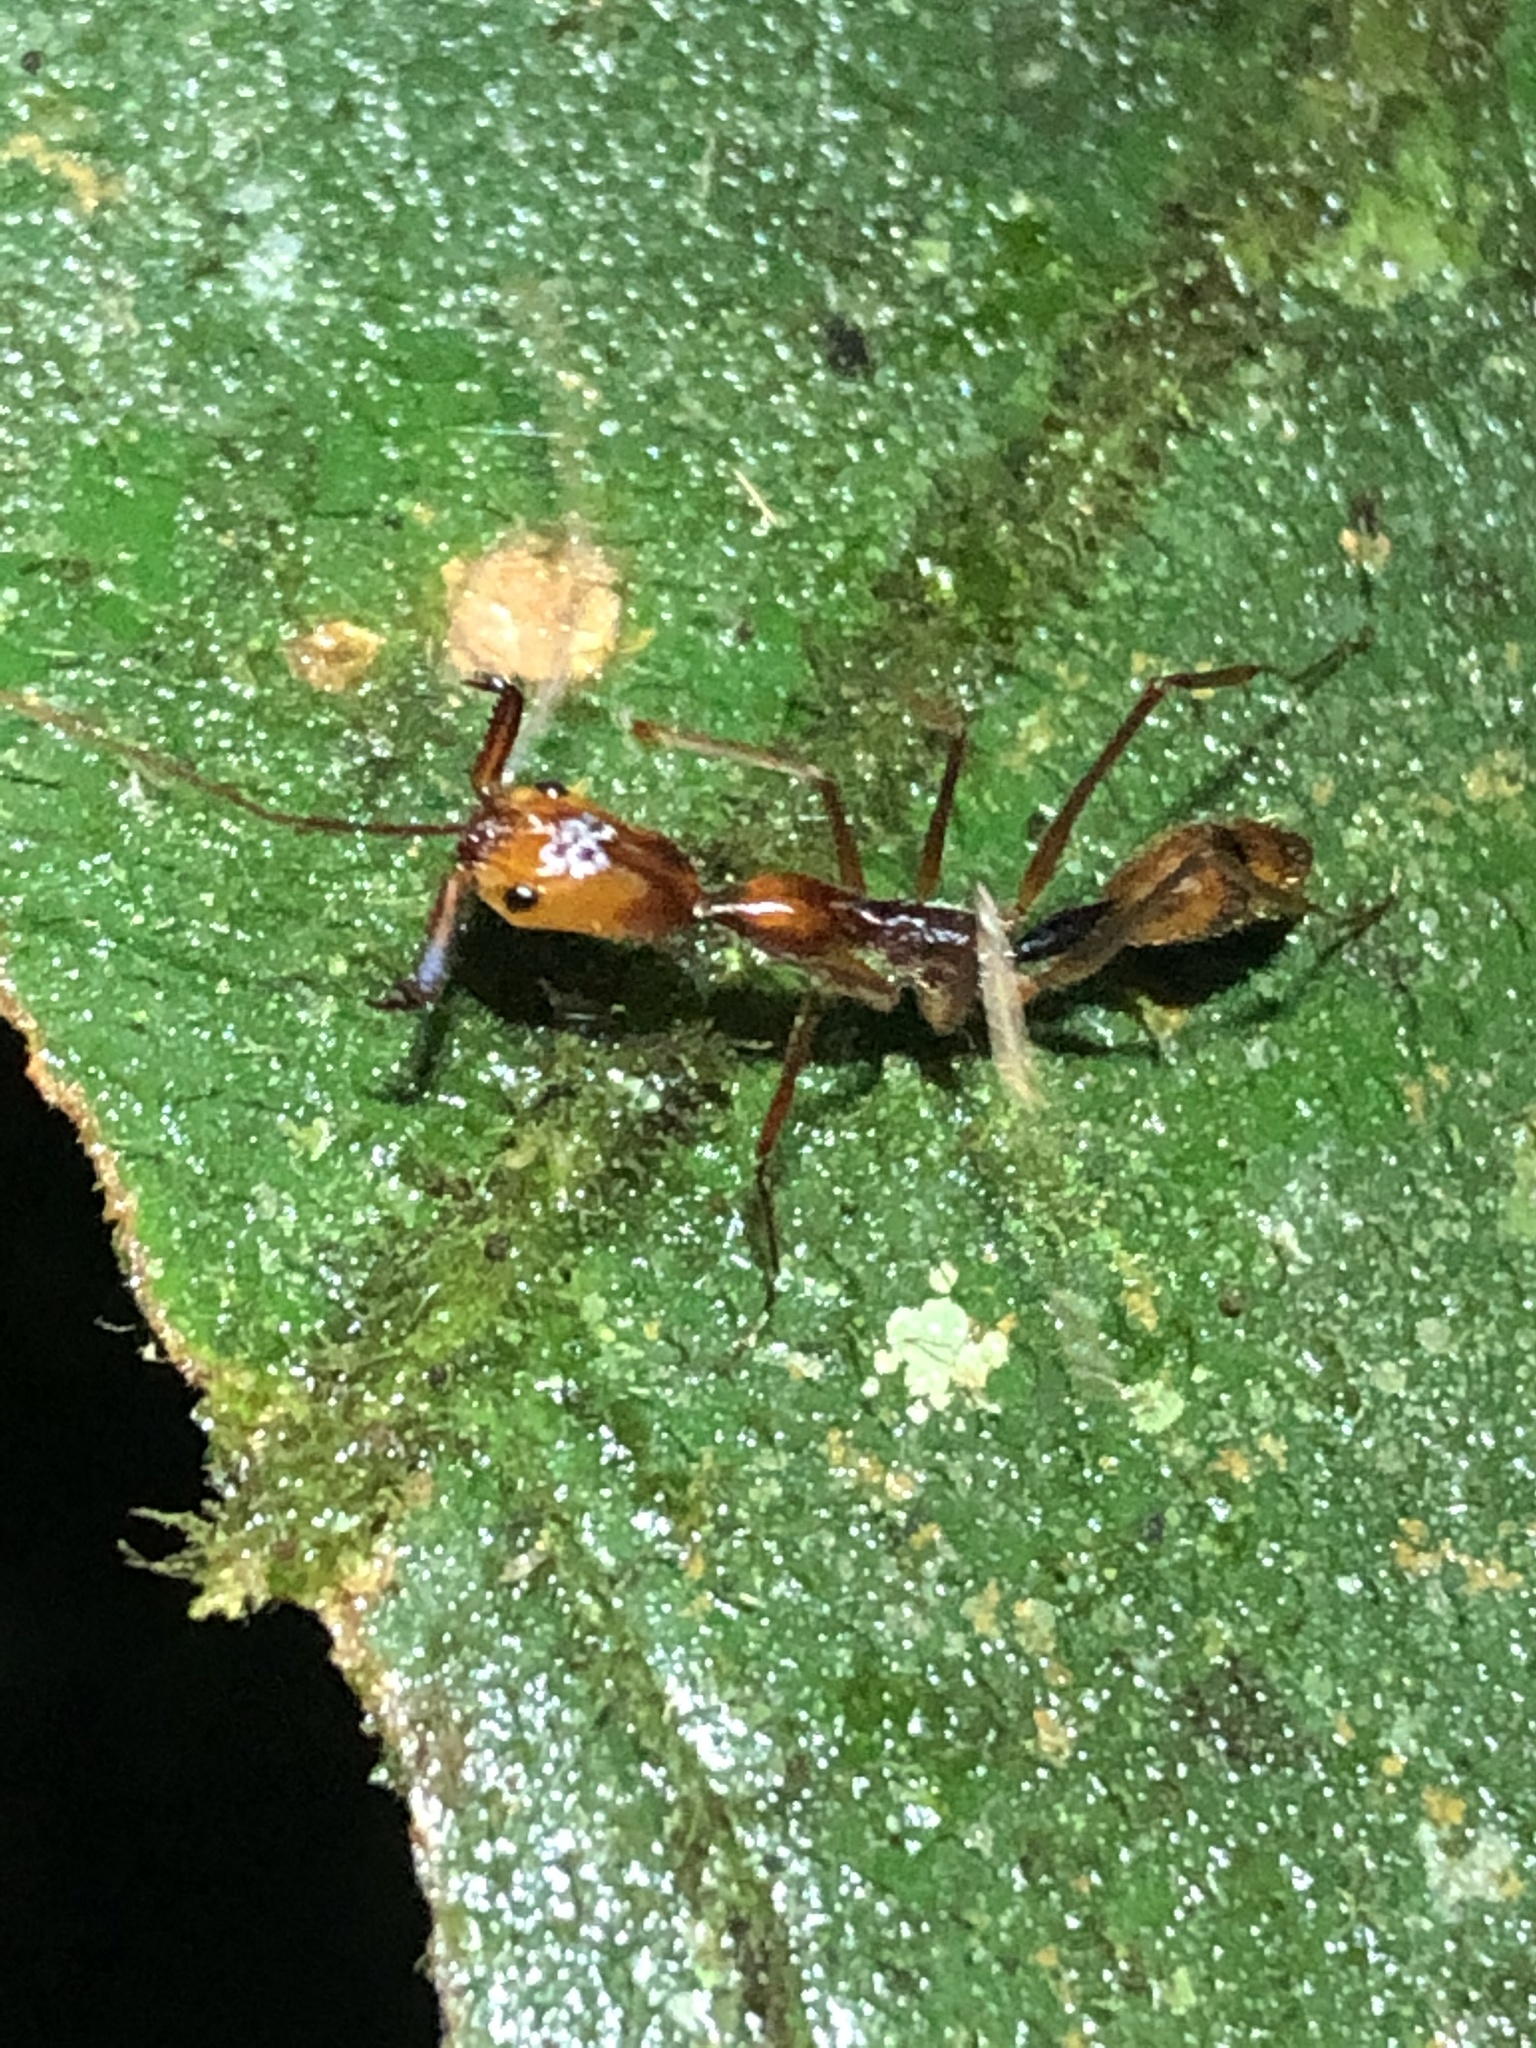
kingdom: Animalia
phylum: Arthropoda
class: Insecta
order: Hymenoptera
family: Formicidae
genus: Odontomachus
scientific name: Odontomachus hastatus
